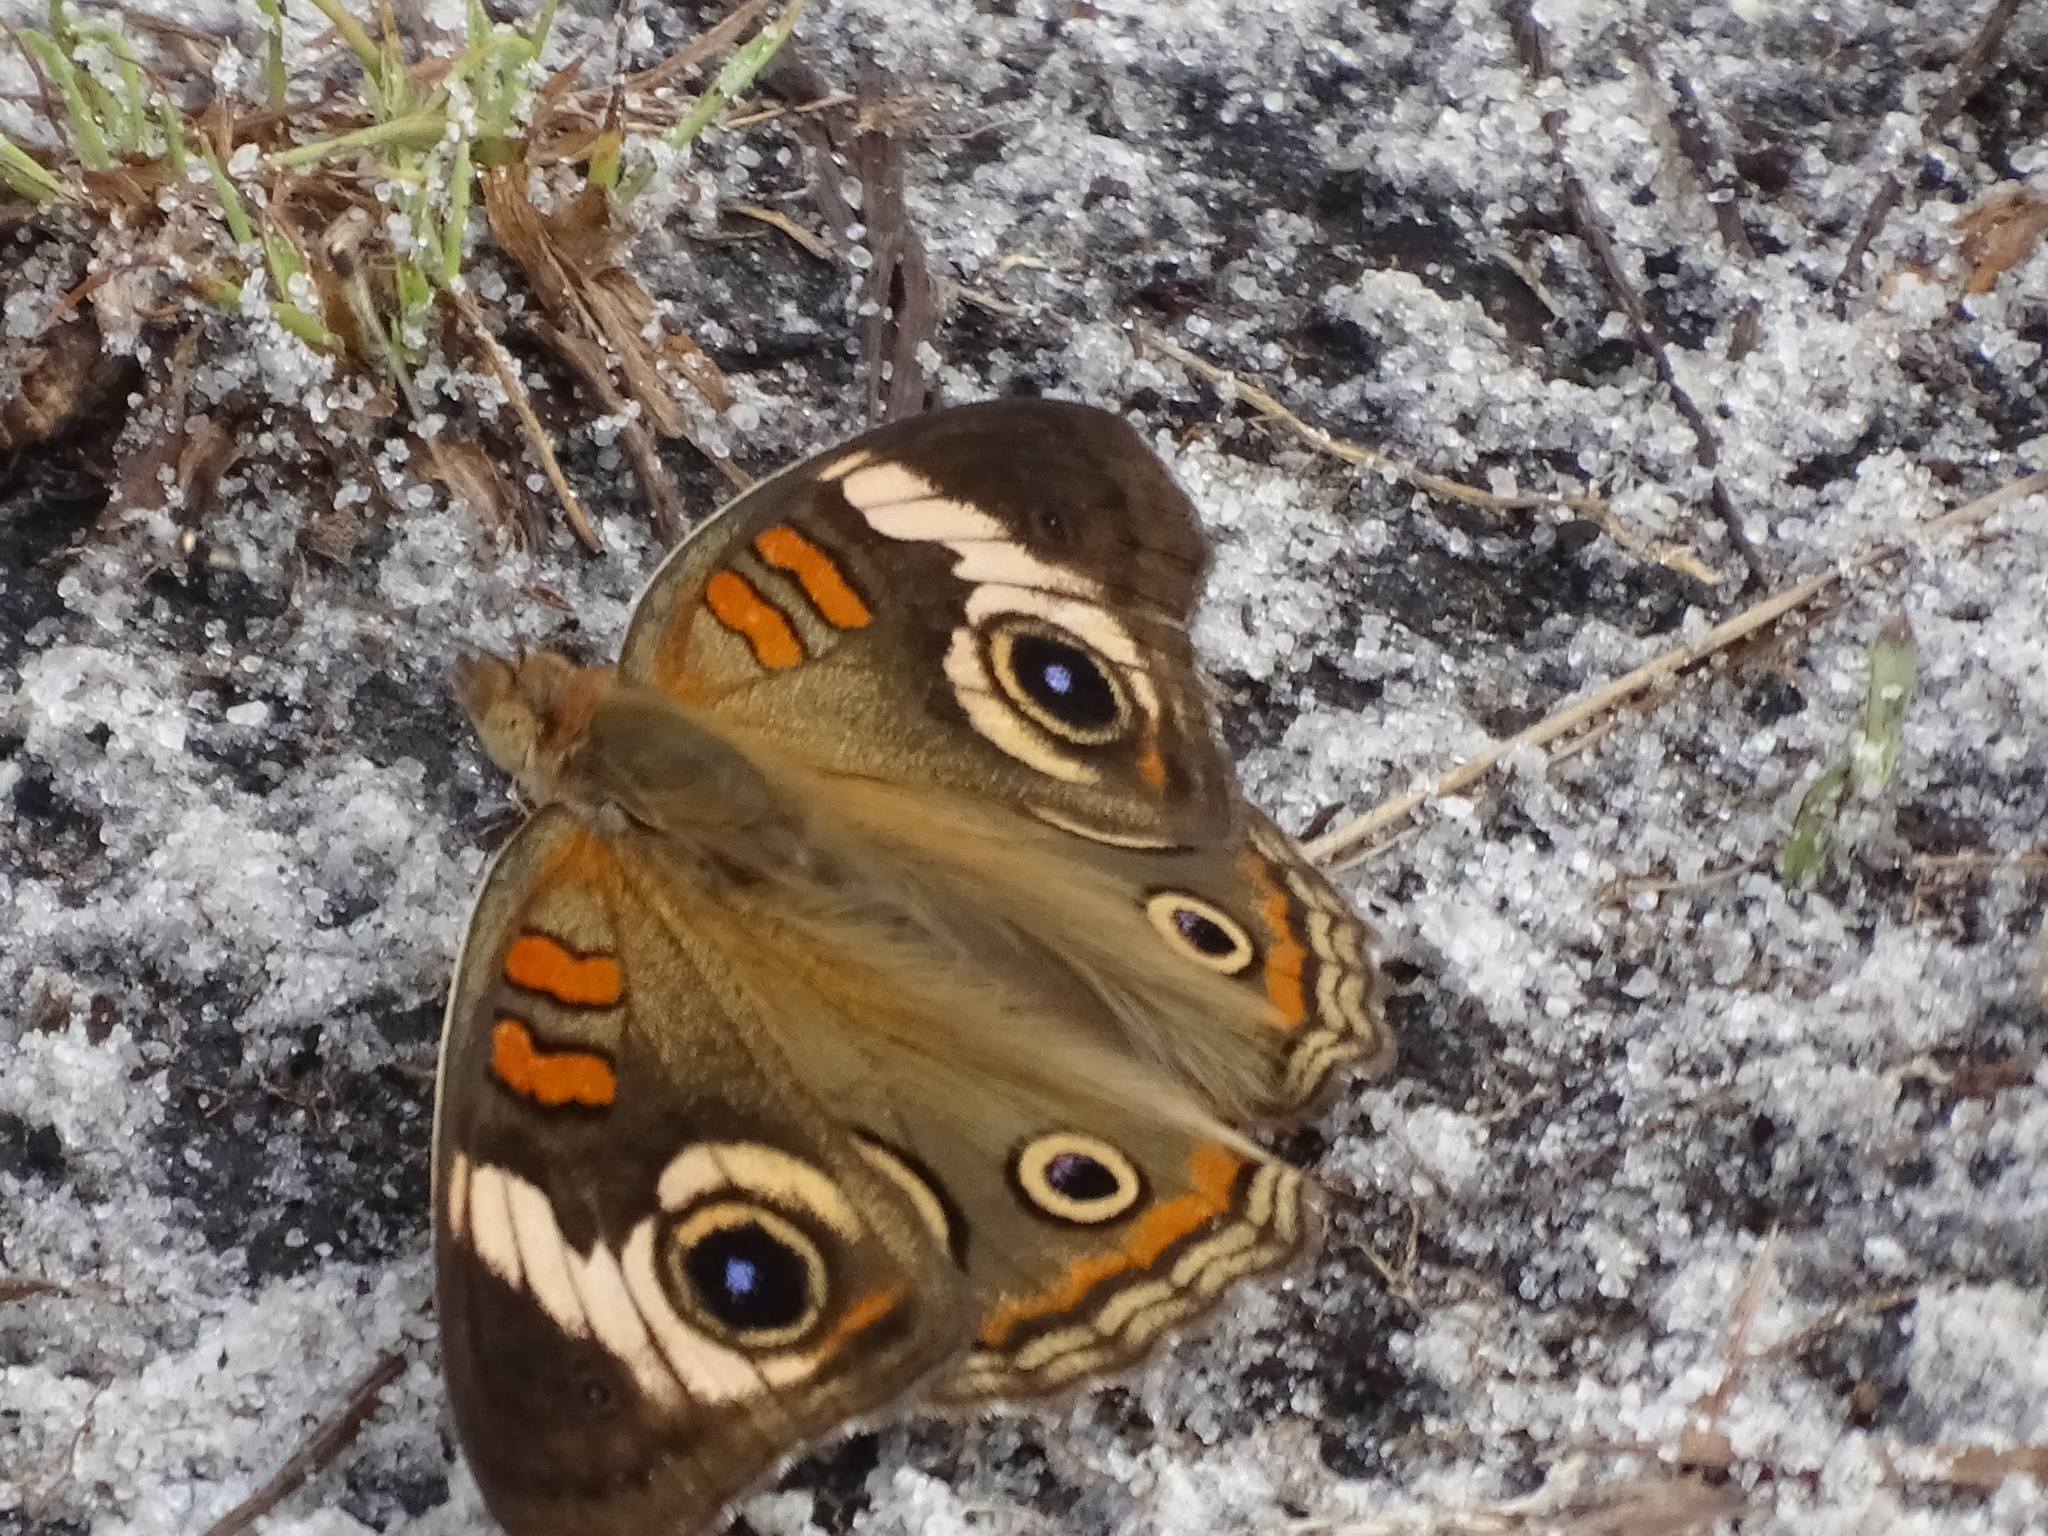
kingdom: Animalia
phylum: Arthropoda
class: Insecta
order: Lepidoptera
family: Nymphalidae
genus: Junonia
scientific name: Junonia coenia
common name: Common buckeye
